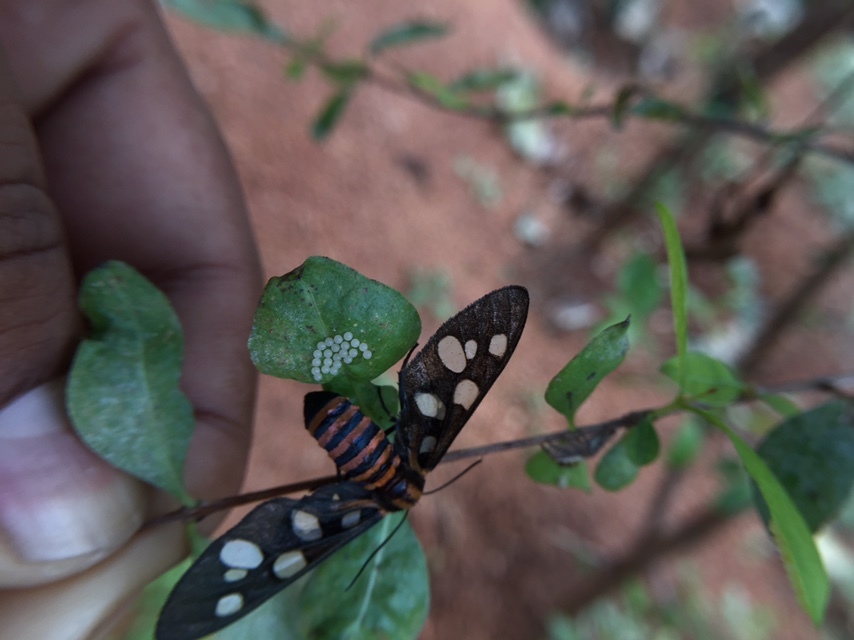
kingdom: Animalia
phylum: Arthropoda
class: Insecta
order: Lepidoptera
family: Erebidae
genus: Amata
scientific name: Amata passalis
